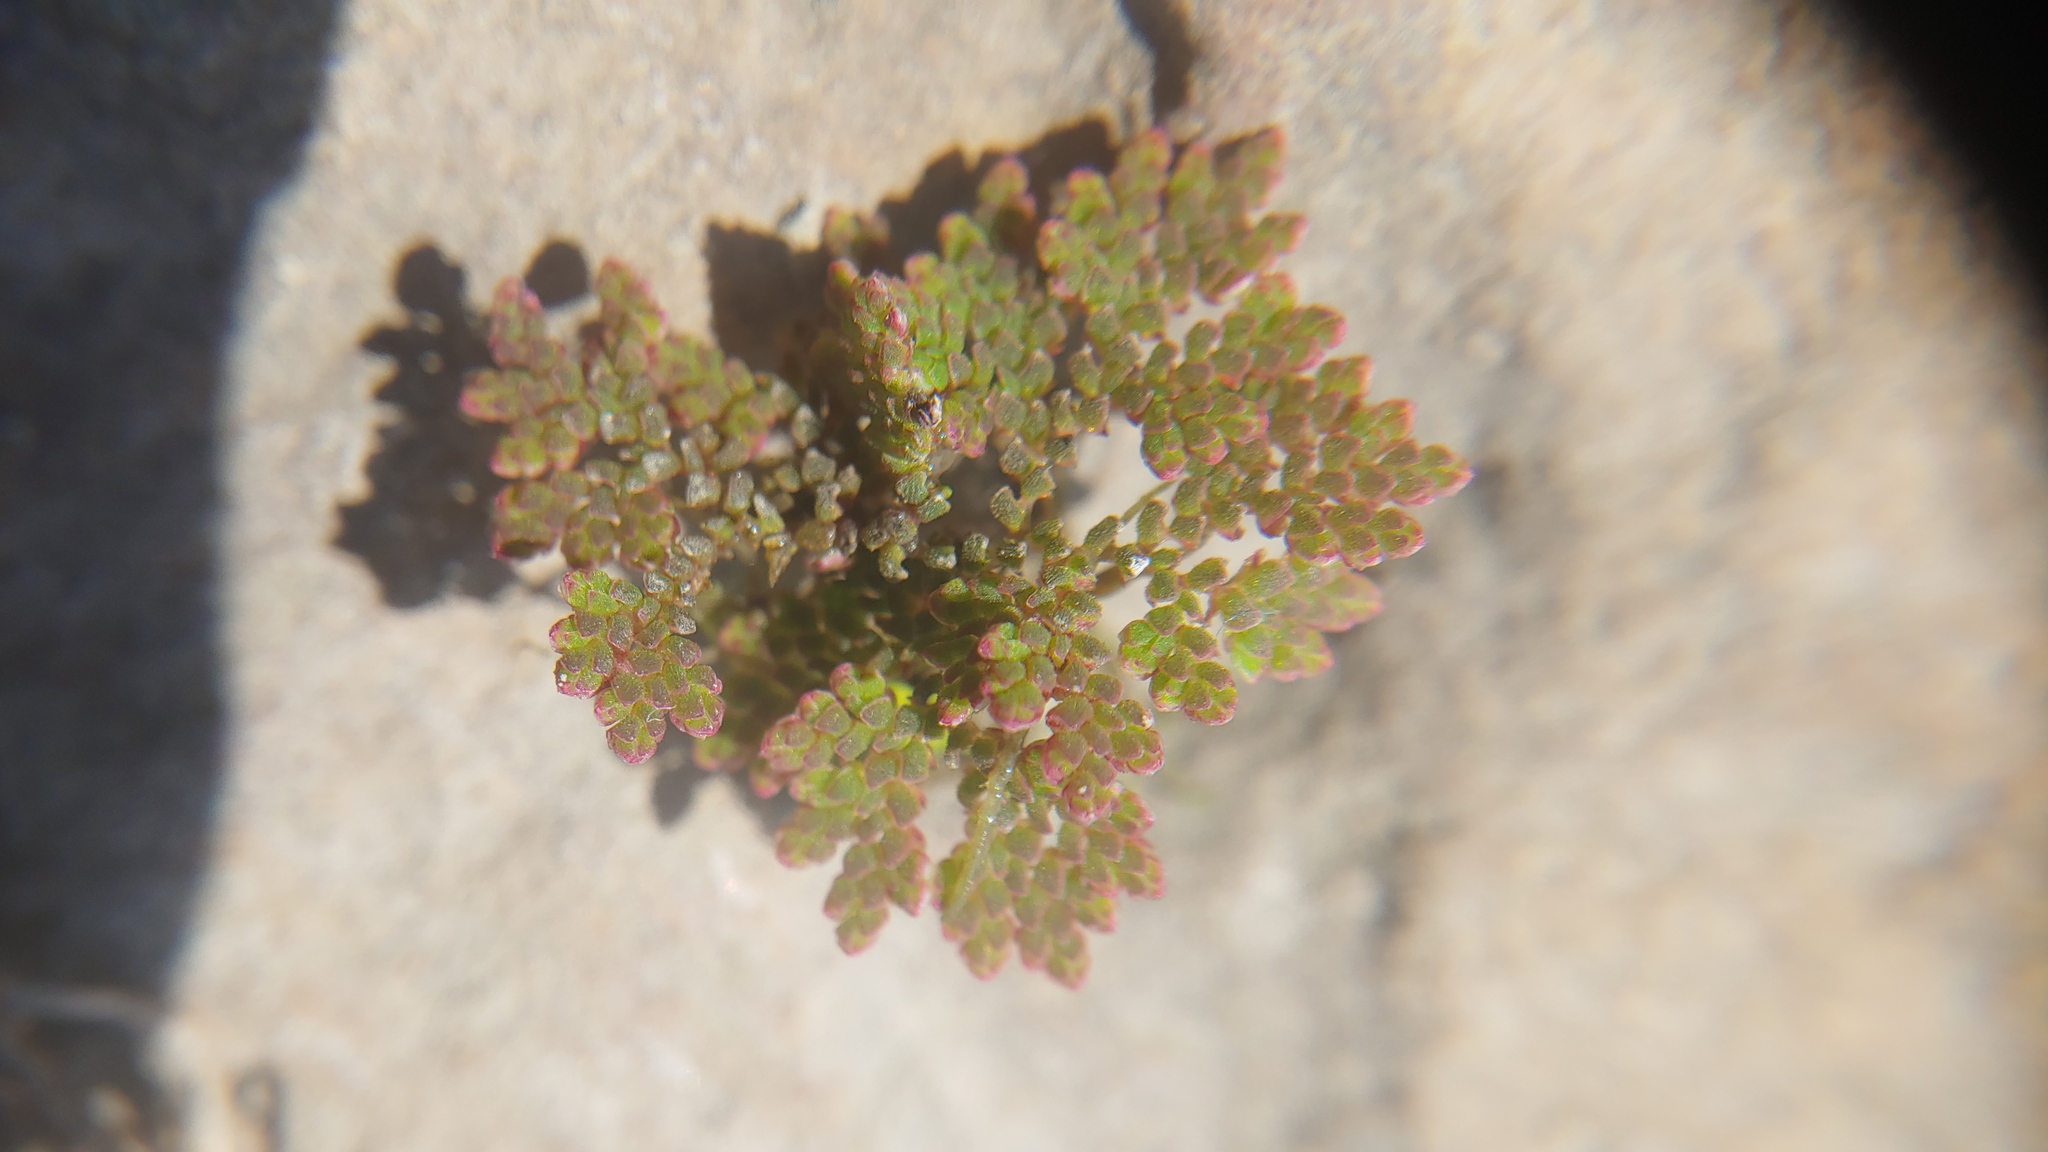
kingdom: Plantae
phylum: Tracheophyta
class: Polypodiopsida
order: Salviniales
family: Salviniaceae
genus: Azolla
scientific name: Azolla caroliniana
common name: Carolina mosquitofern
